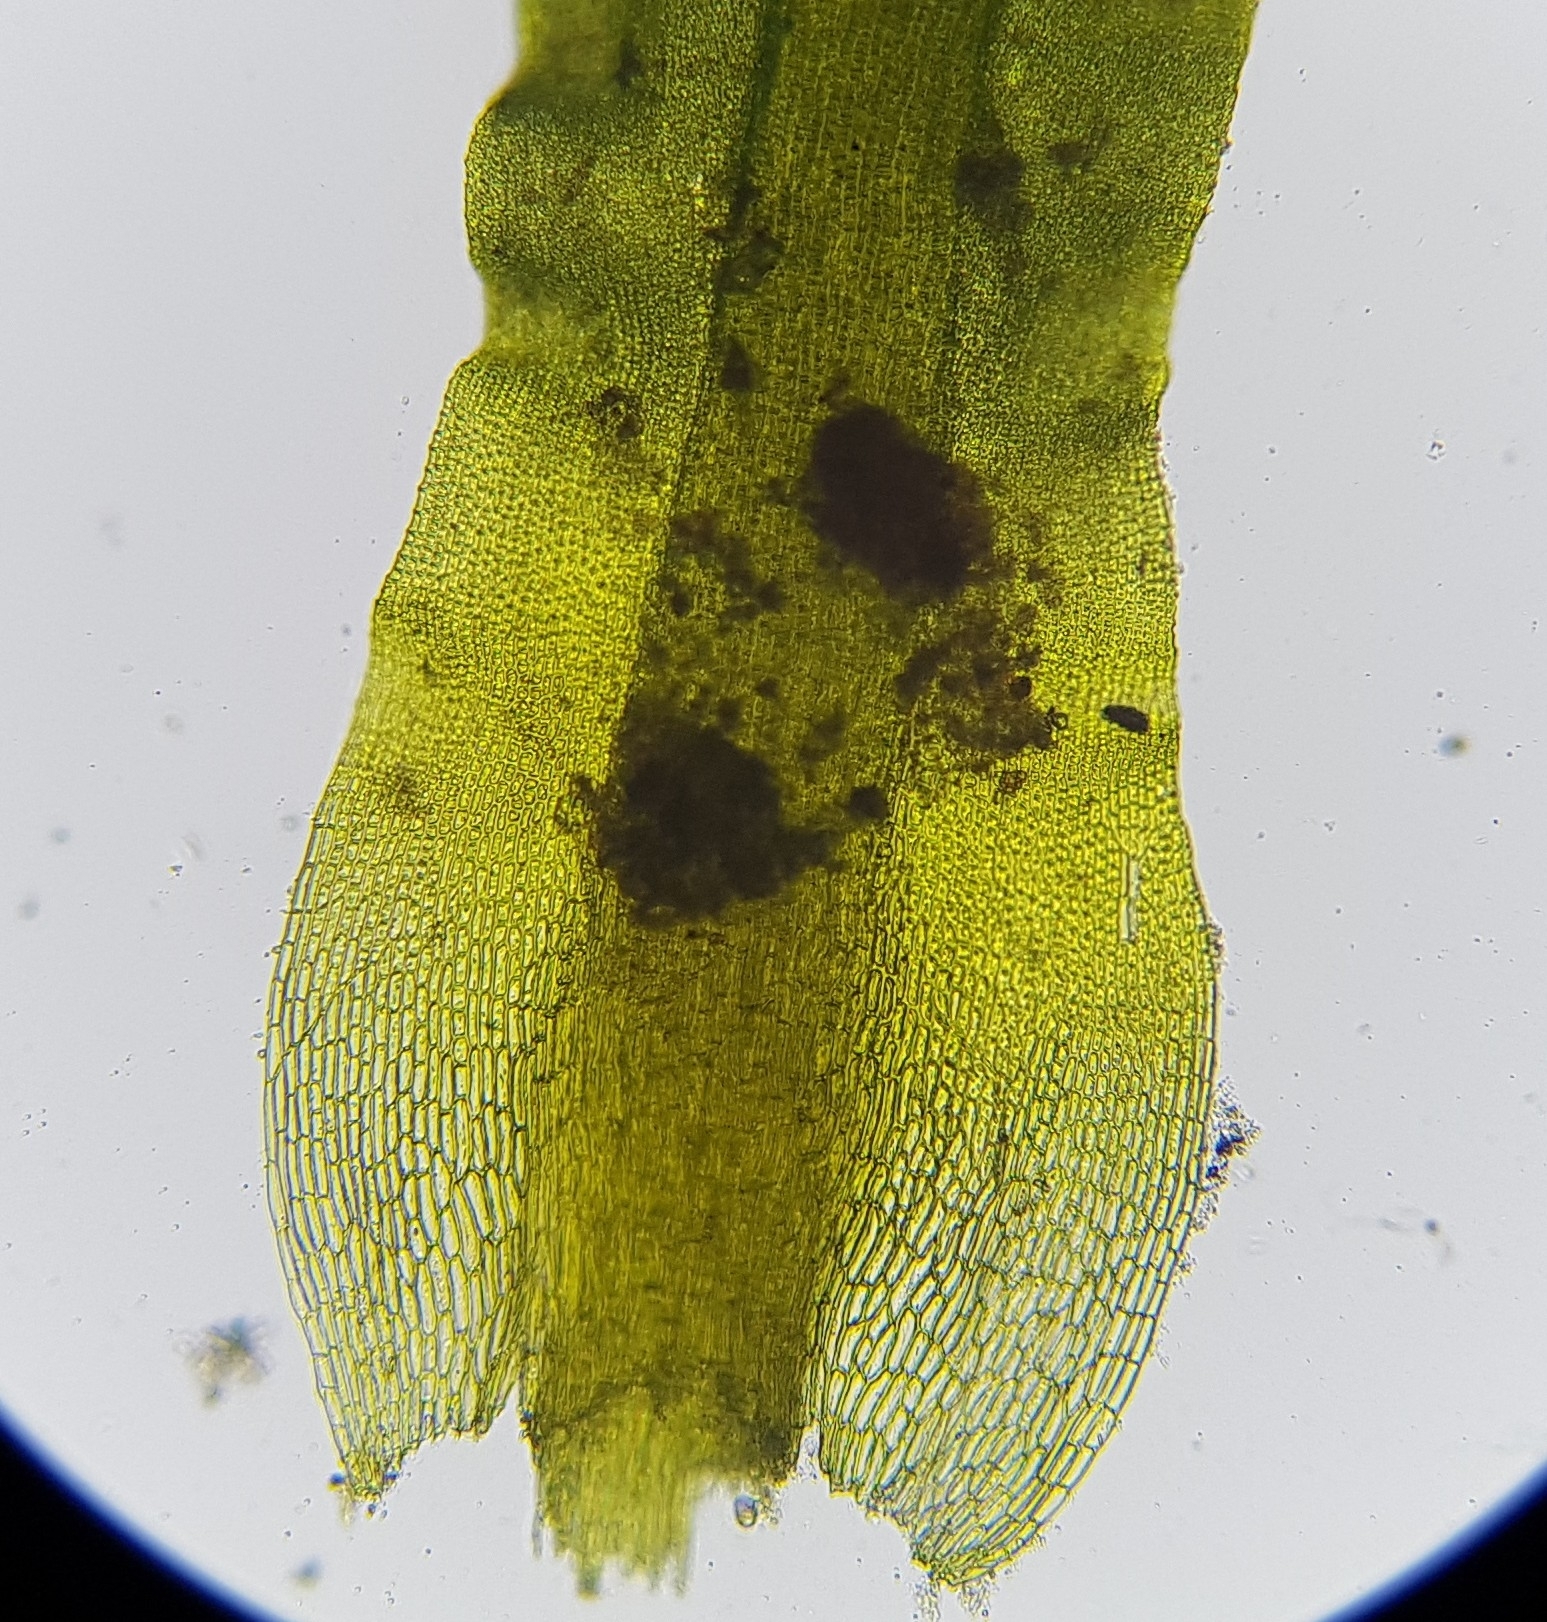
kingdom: Plantae
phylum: Bryophyta
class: Bryopsida
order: Pottiales
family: Pottiaceae
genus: Trichostomum
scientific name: Trichostomum brachydontium
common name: Variable crisp-moss
